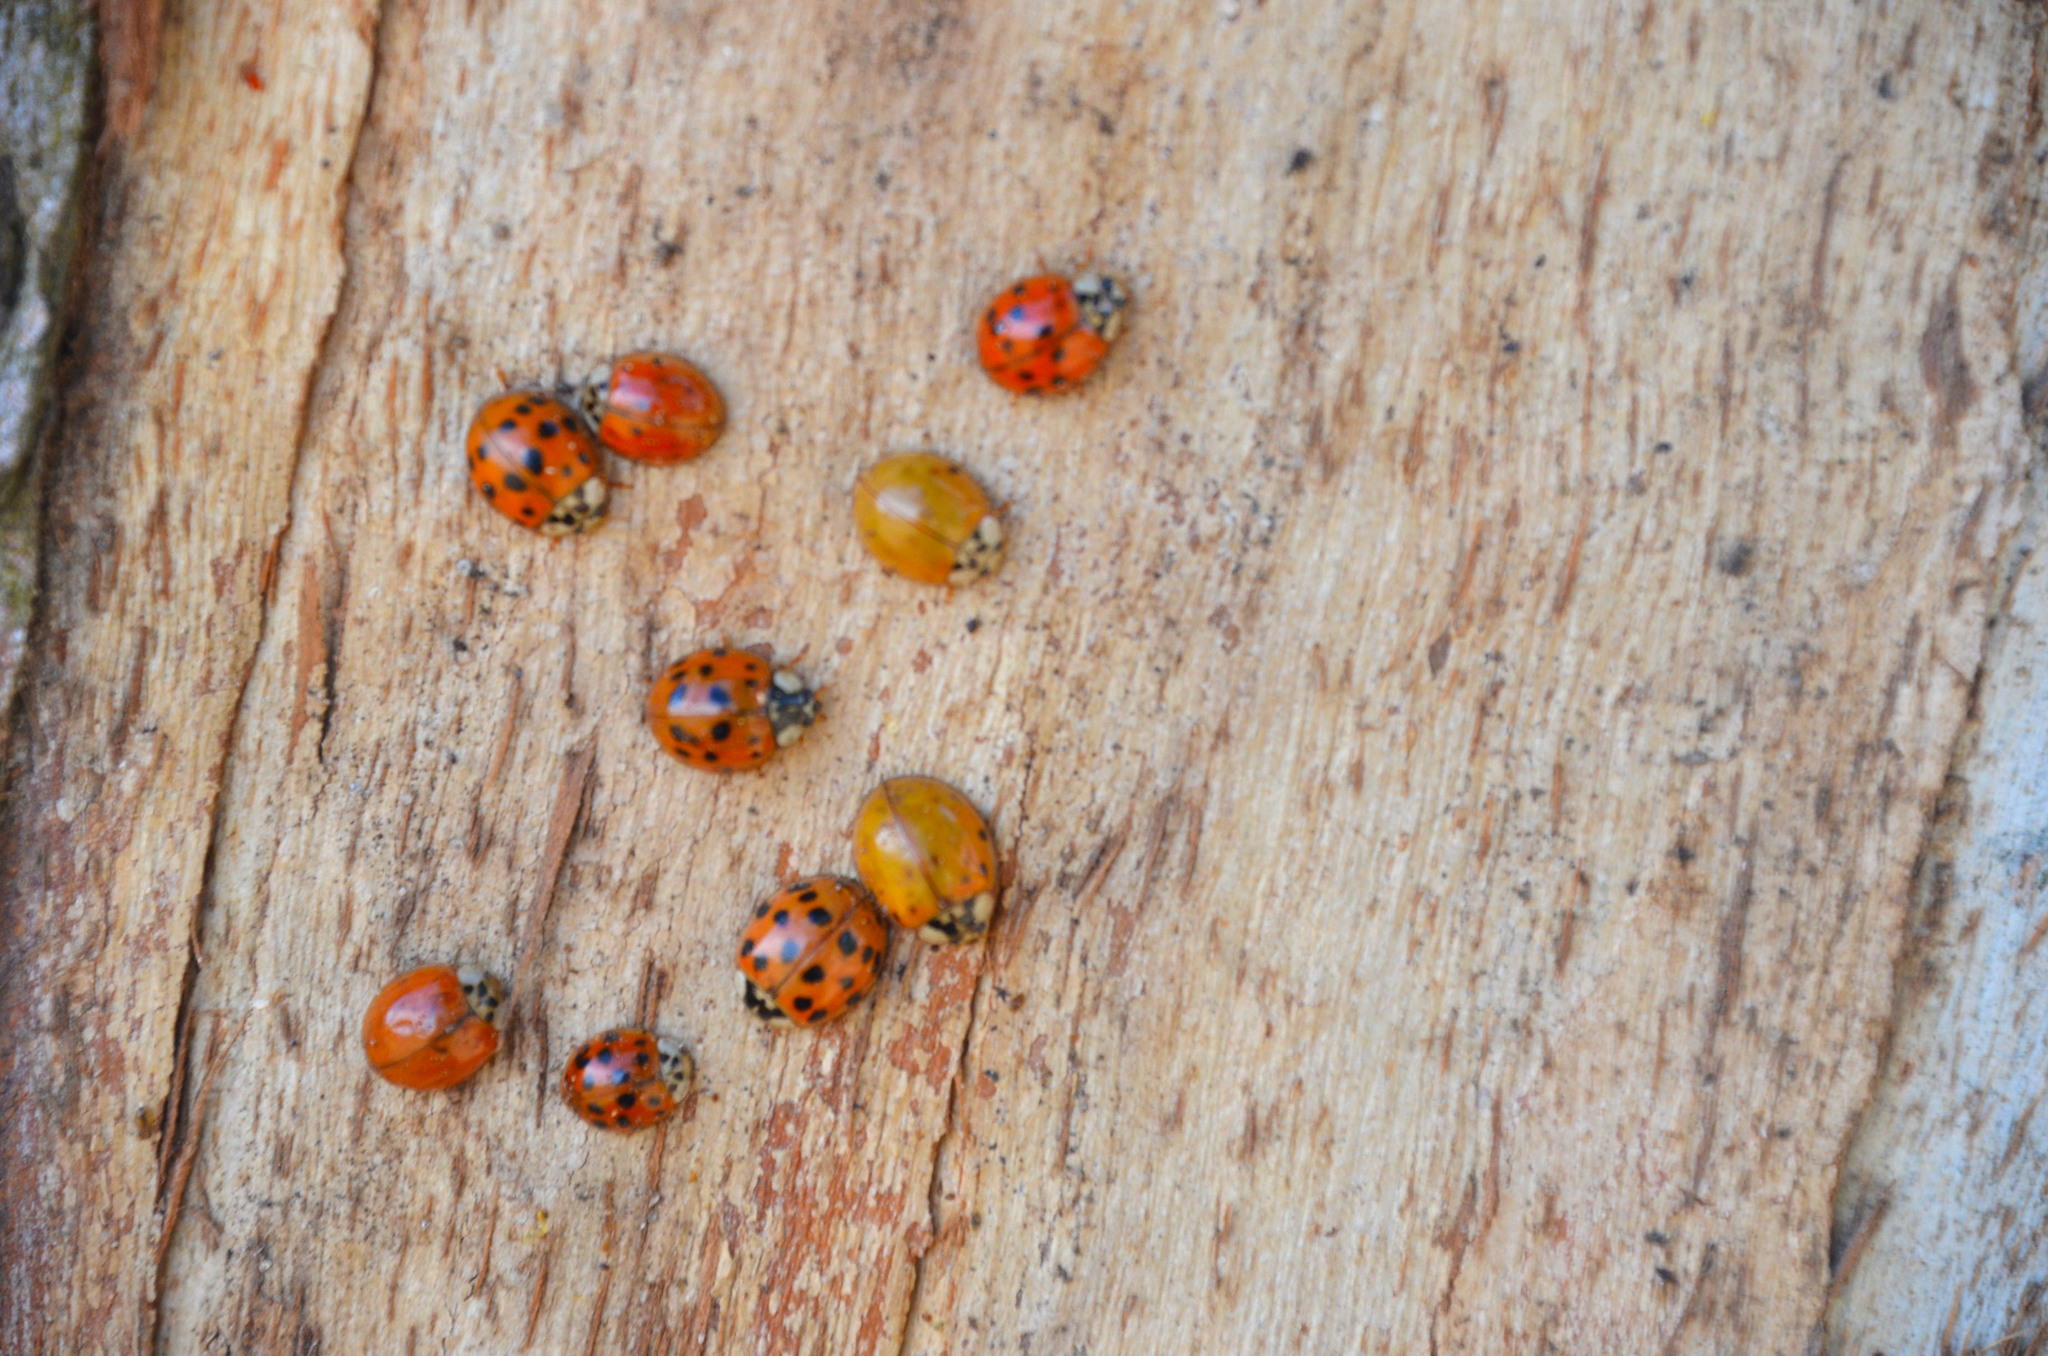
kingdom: Animalia
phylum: Arthropoda
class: Insecta
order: Coleoptera
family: Coccinellidae
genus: Harmonia
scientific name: Harmonia axyridis
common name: Harlequin ladybird
